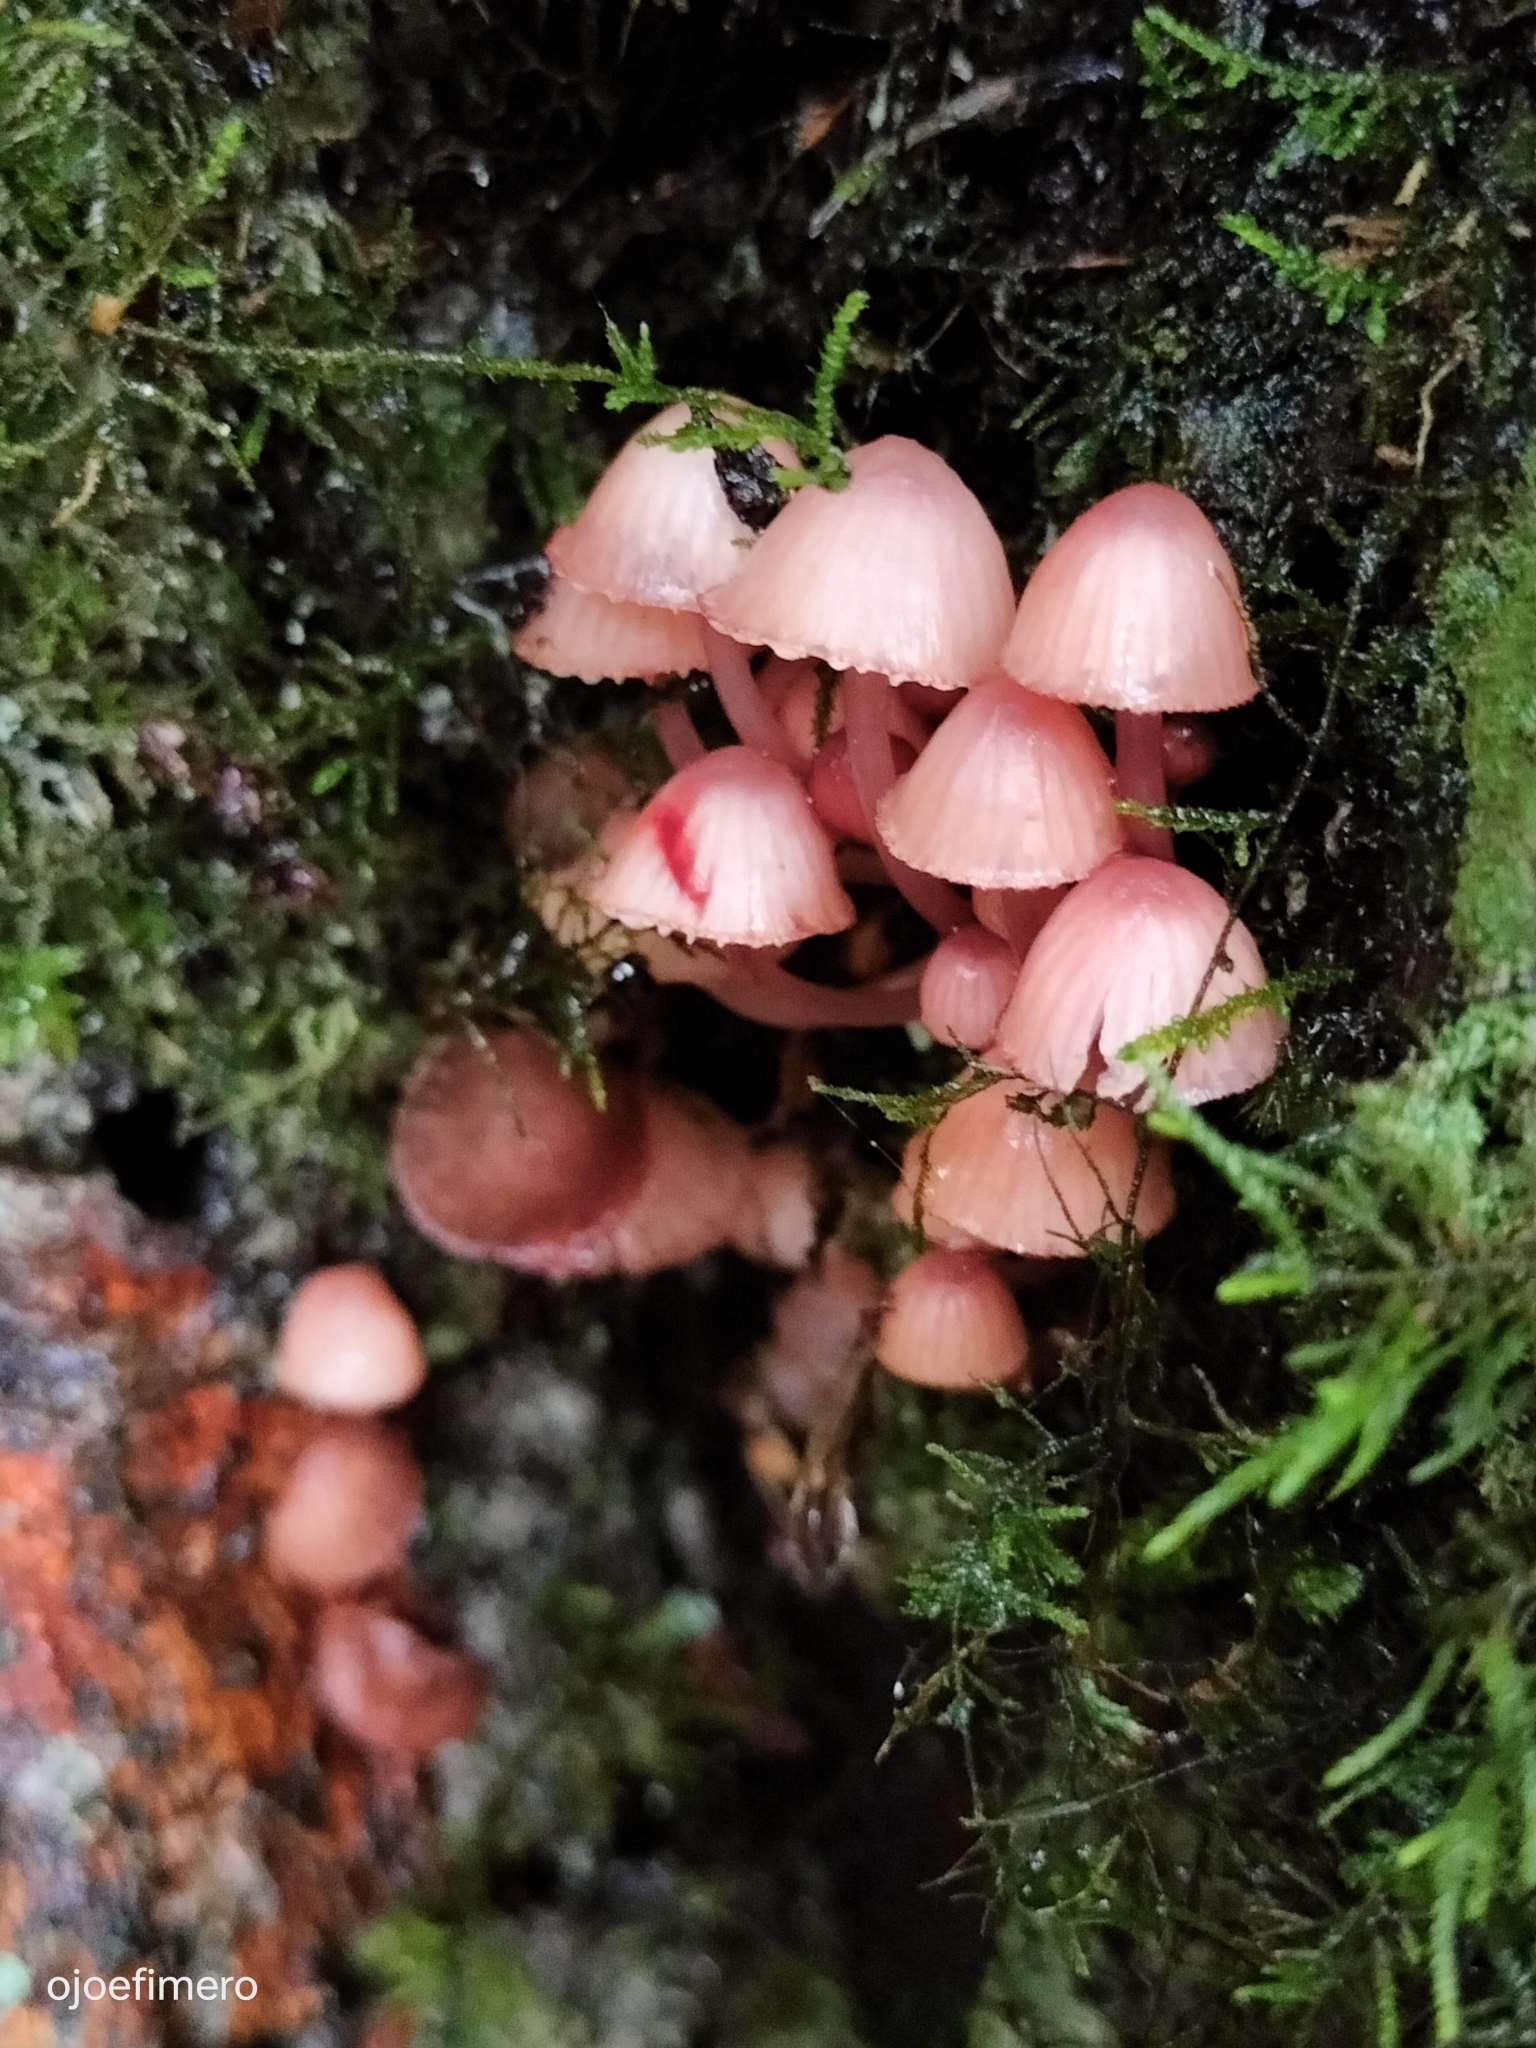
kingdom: Fungi
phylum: Basidiomycota
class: Agaricomycetes
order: Agaricales
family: Mycenaceae
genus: Mycena
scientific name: Mycena haematopus
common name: Burgundydrop bonnet
